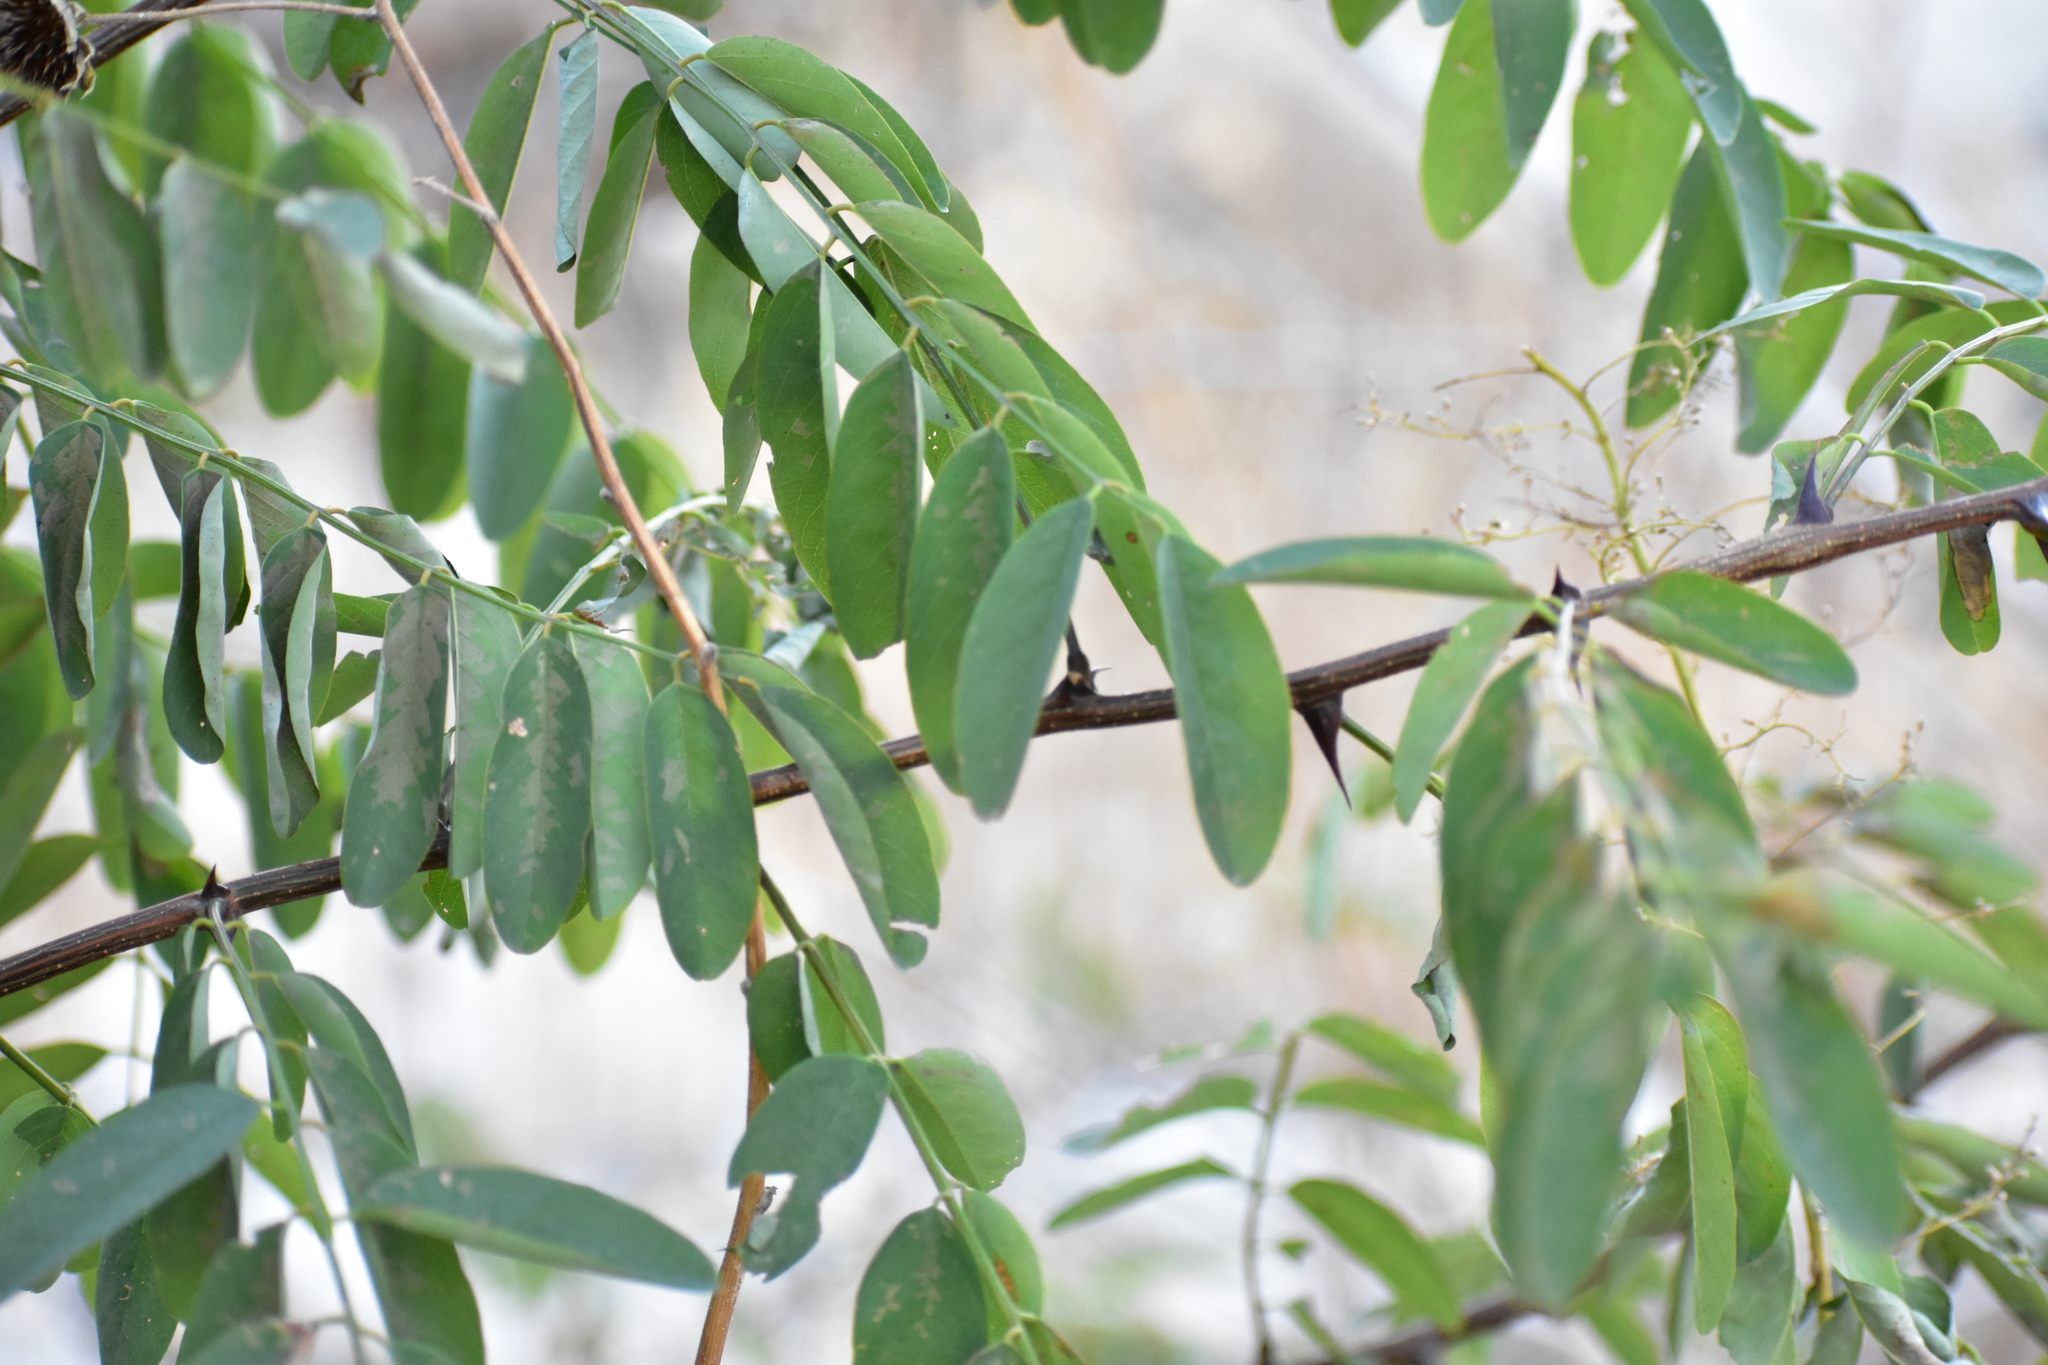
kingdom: Plantae
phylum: Tracheophyta
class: Magnoliopsida
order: Fabales
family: Fabaceae
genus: Robinia
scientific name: Robinia pseudoacacia
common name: Black locust
